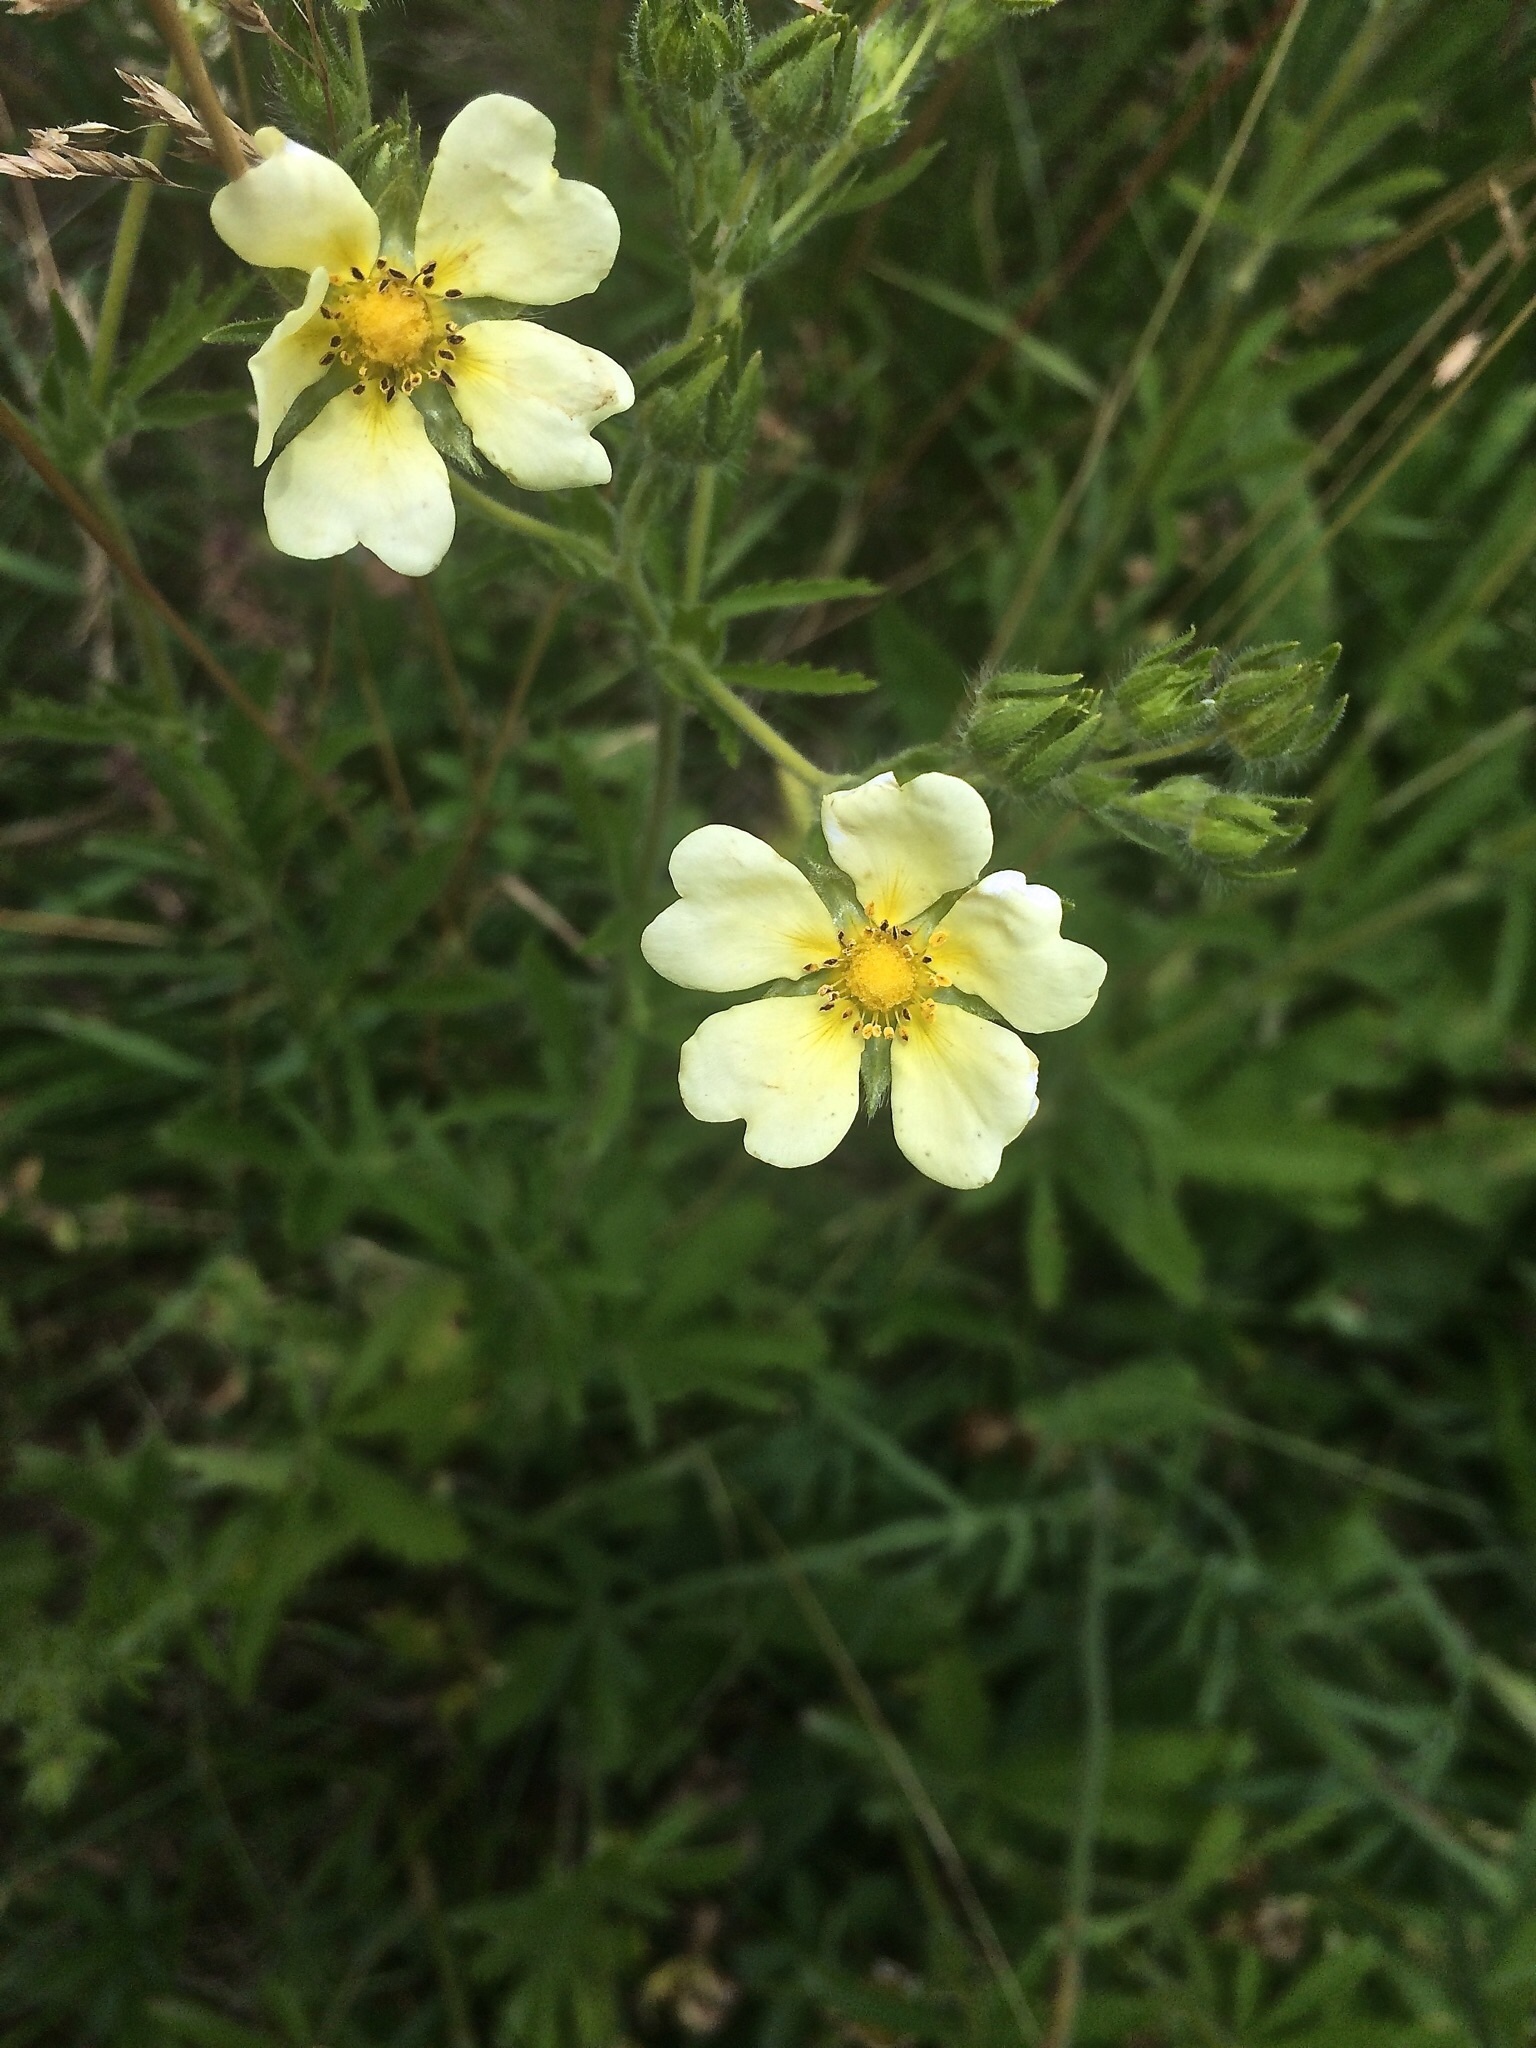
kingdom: Plantae
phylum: Tracheophyta
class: Magnoliopsida
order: Rosales
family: Rosaceae
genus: Potentilla
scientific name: Potentilla recta
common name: Sulphur cinquefoil
